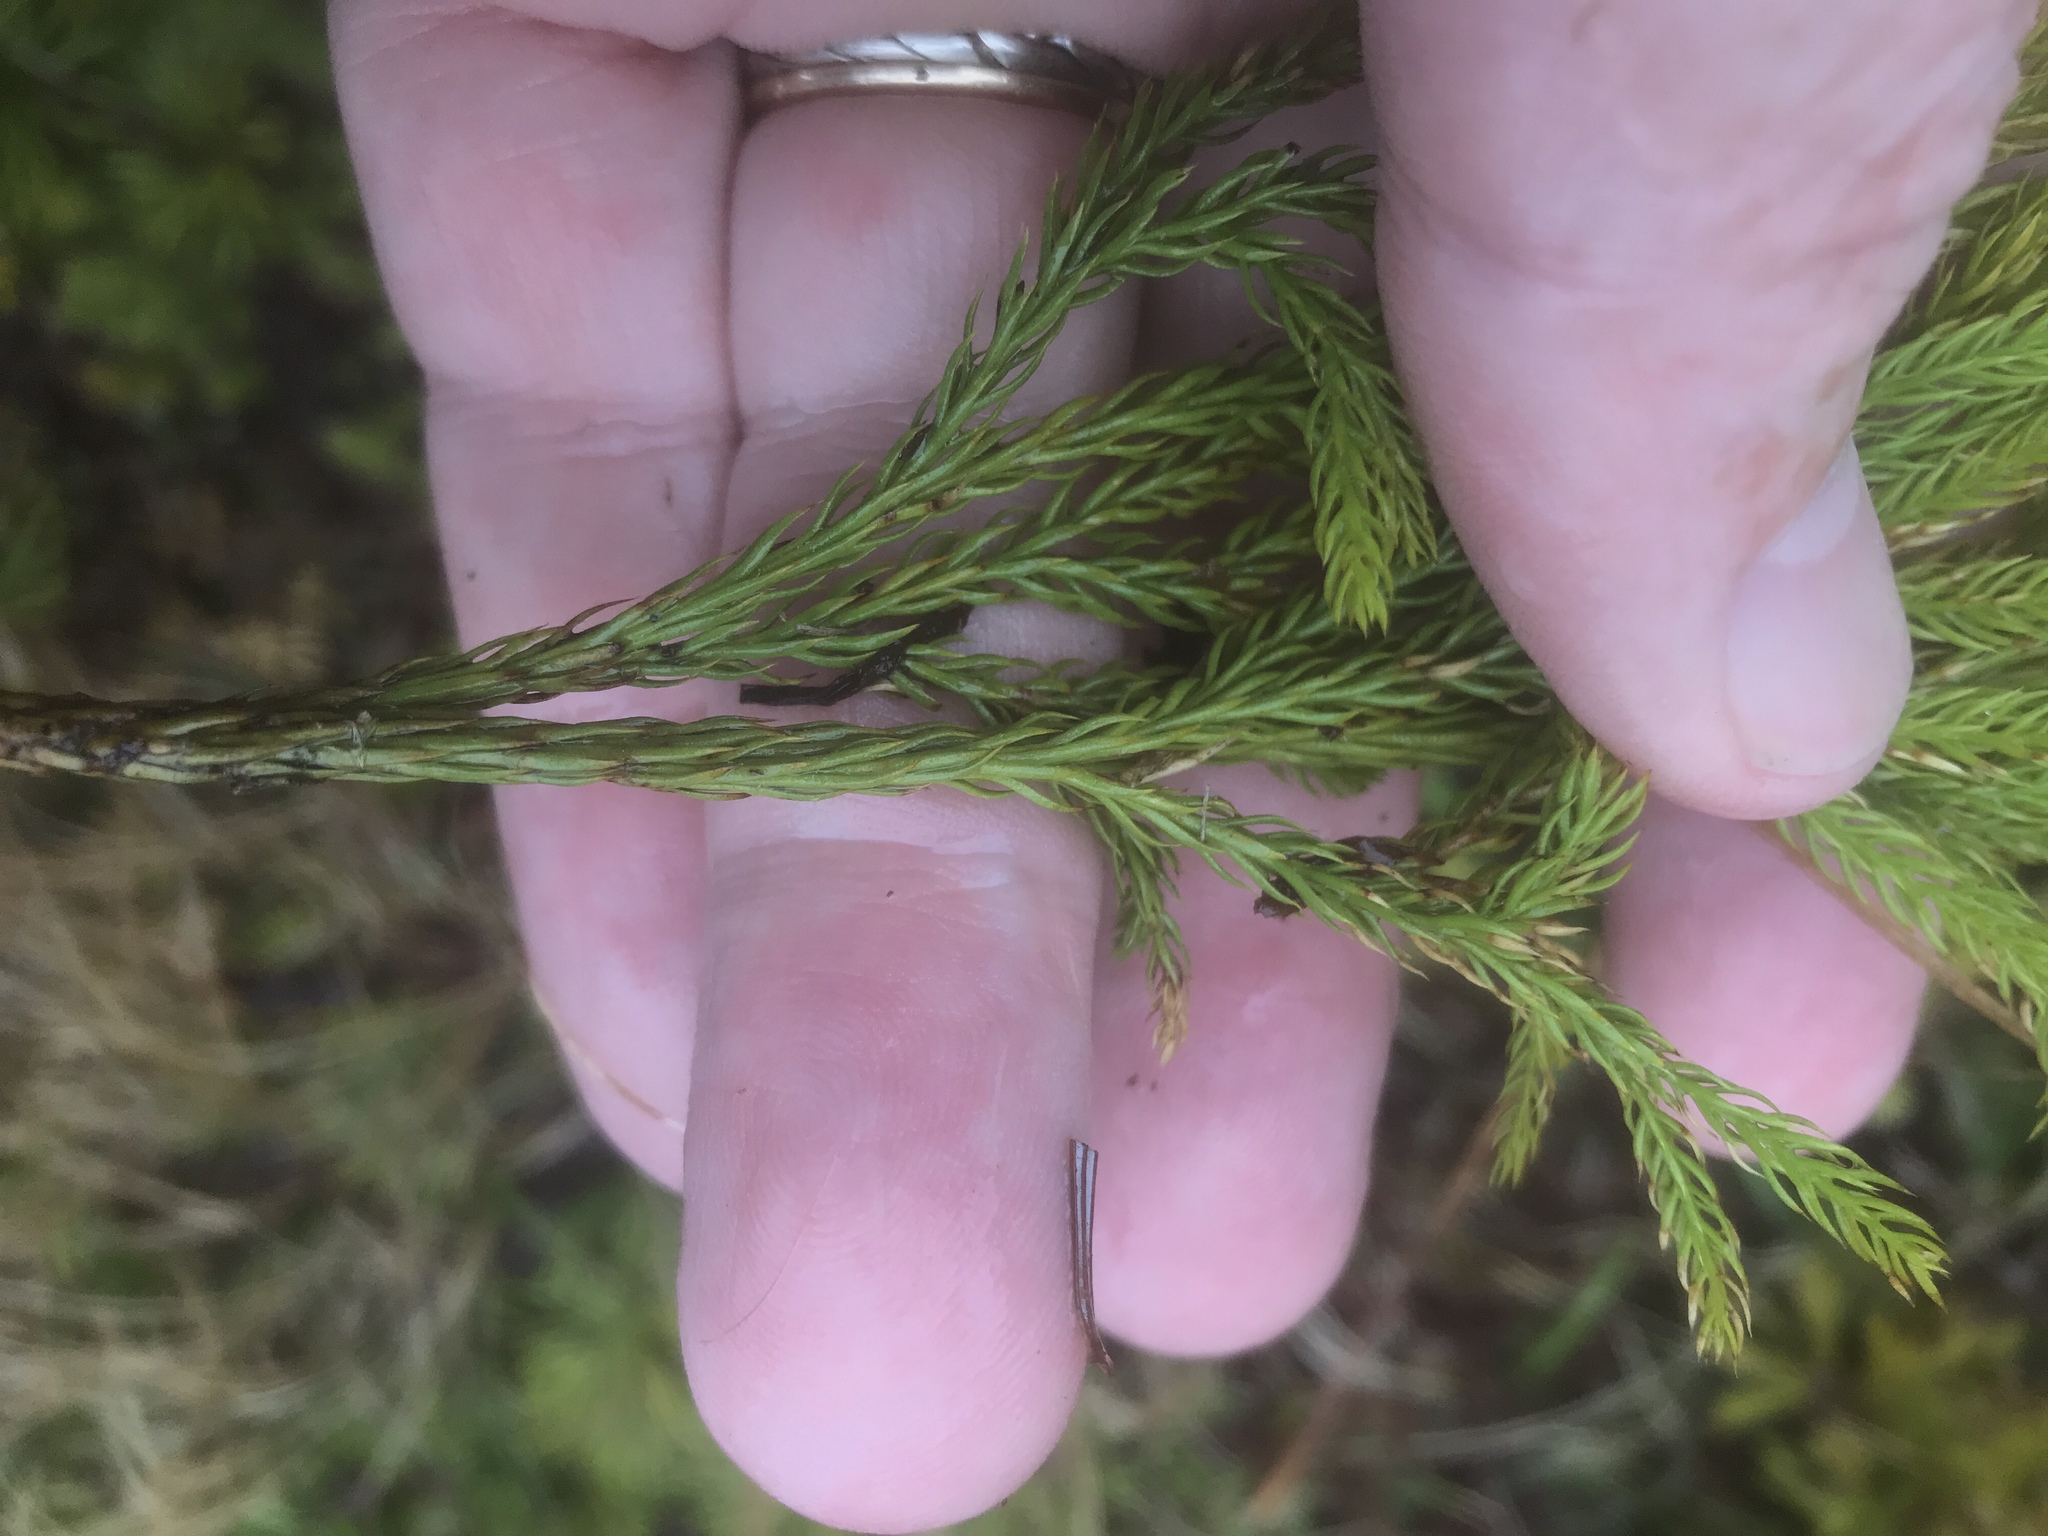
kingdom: Plantae
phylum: Tracheophyta
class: Lycopodiopsida
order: Lycopodiales
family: Lycopodiaceae
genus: Dendrolycopodium
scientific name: Dendrolycopodium hickeyi
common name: Hickey's clubmoss
